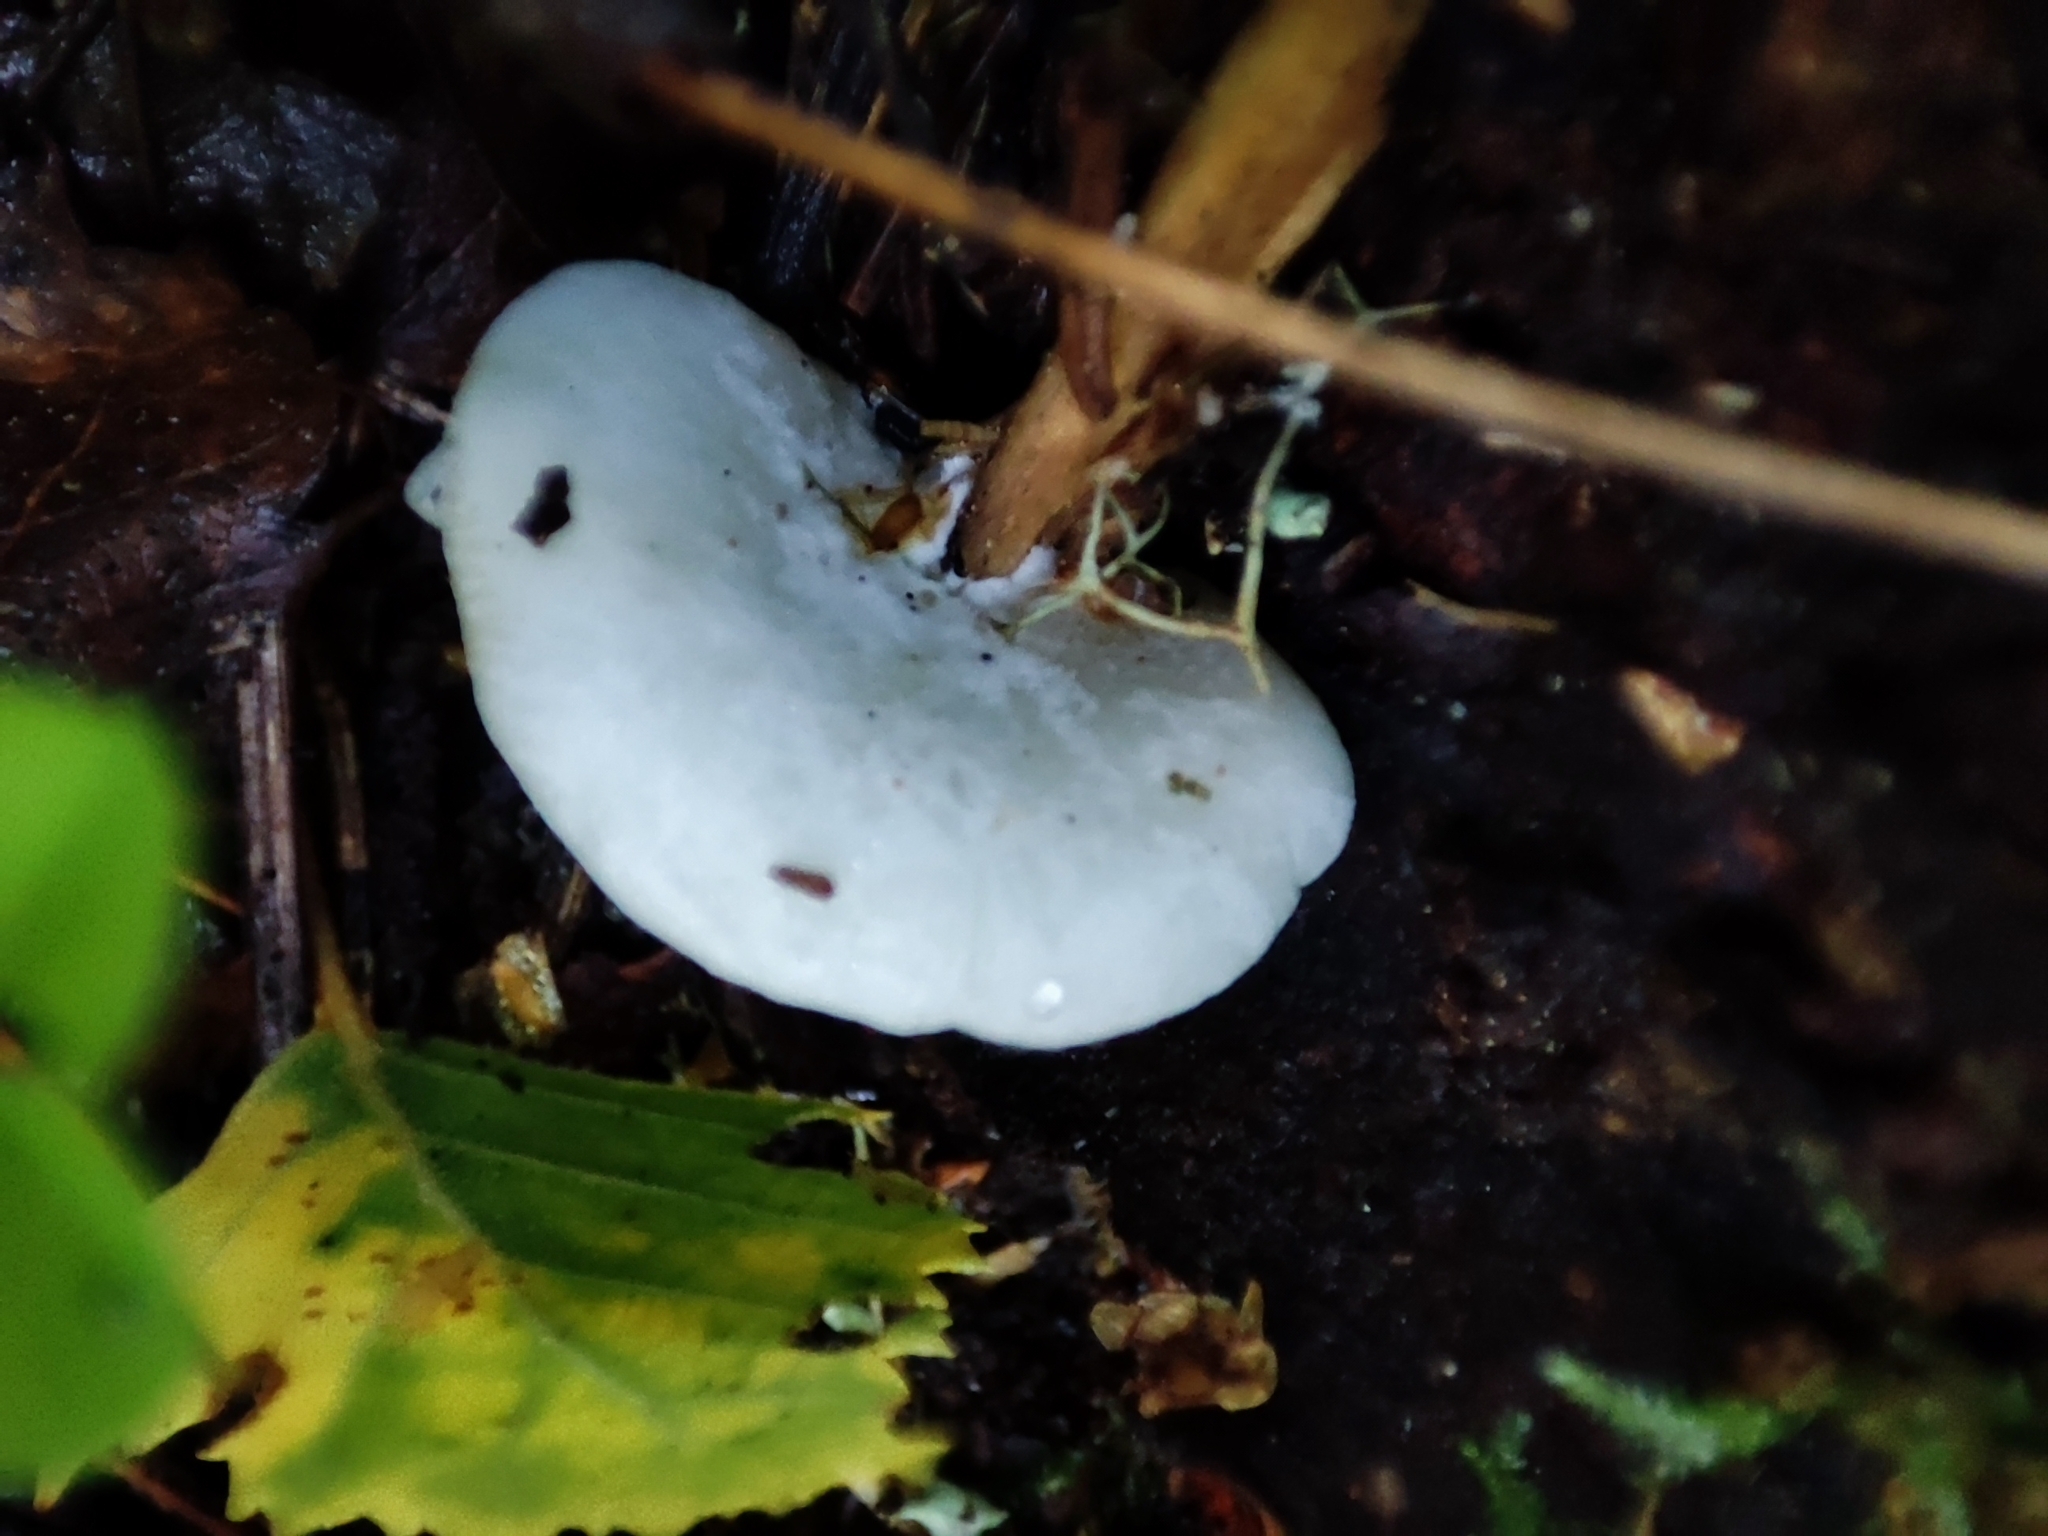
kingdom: Fungi
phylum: Basidiomycota
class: Agaricomycetes
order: Agaricales
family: Entolomataceae
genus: Clitopilus
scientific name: Clitopilus hobsonii
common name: Miller's oysterling
